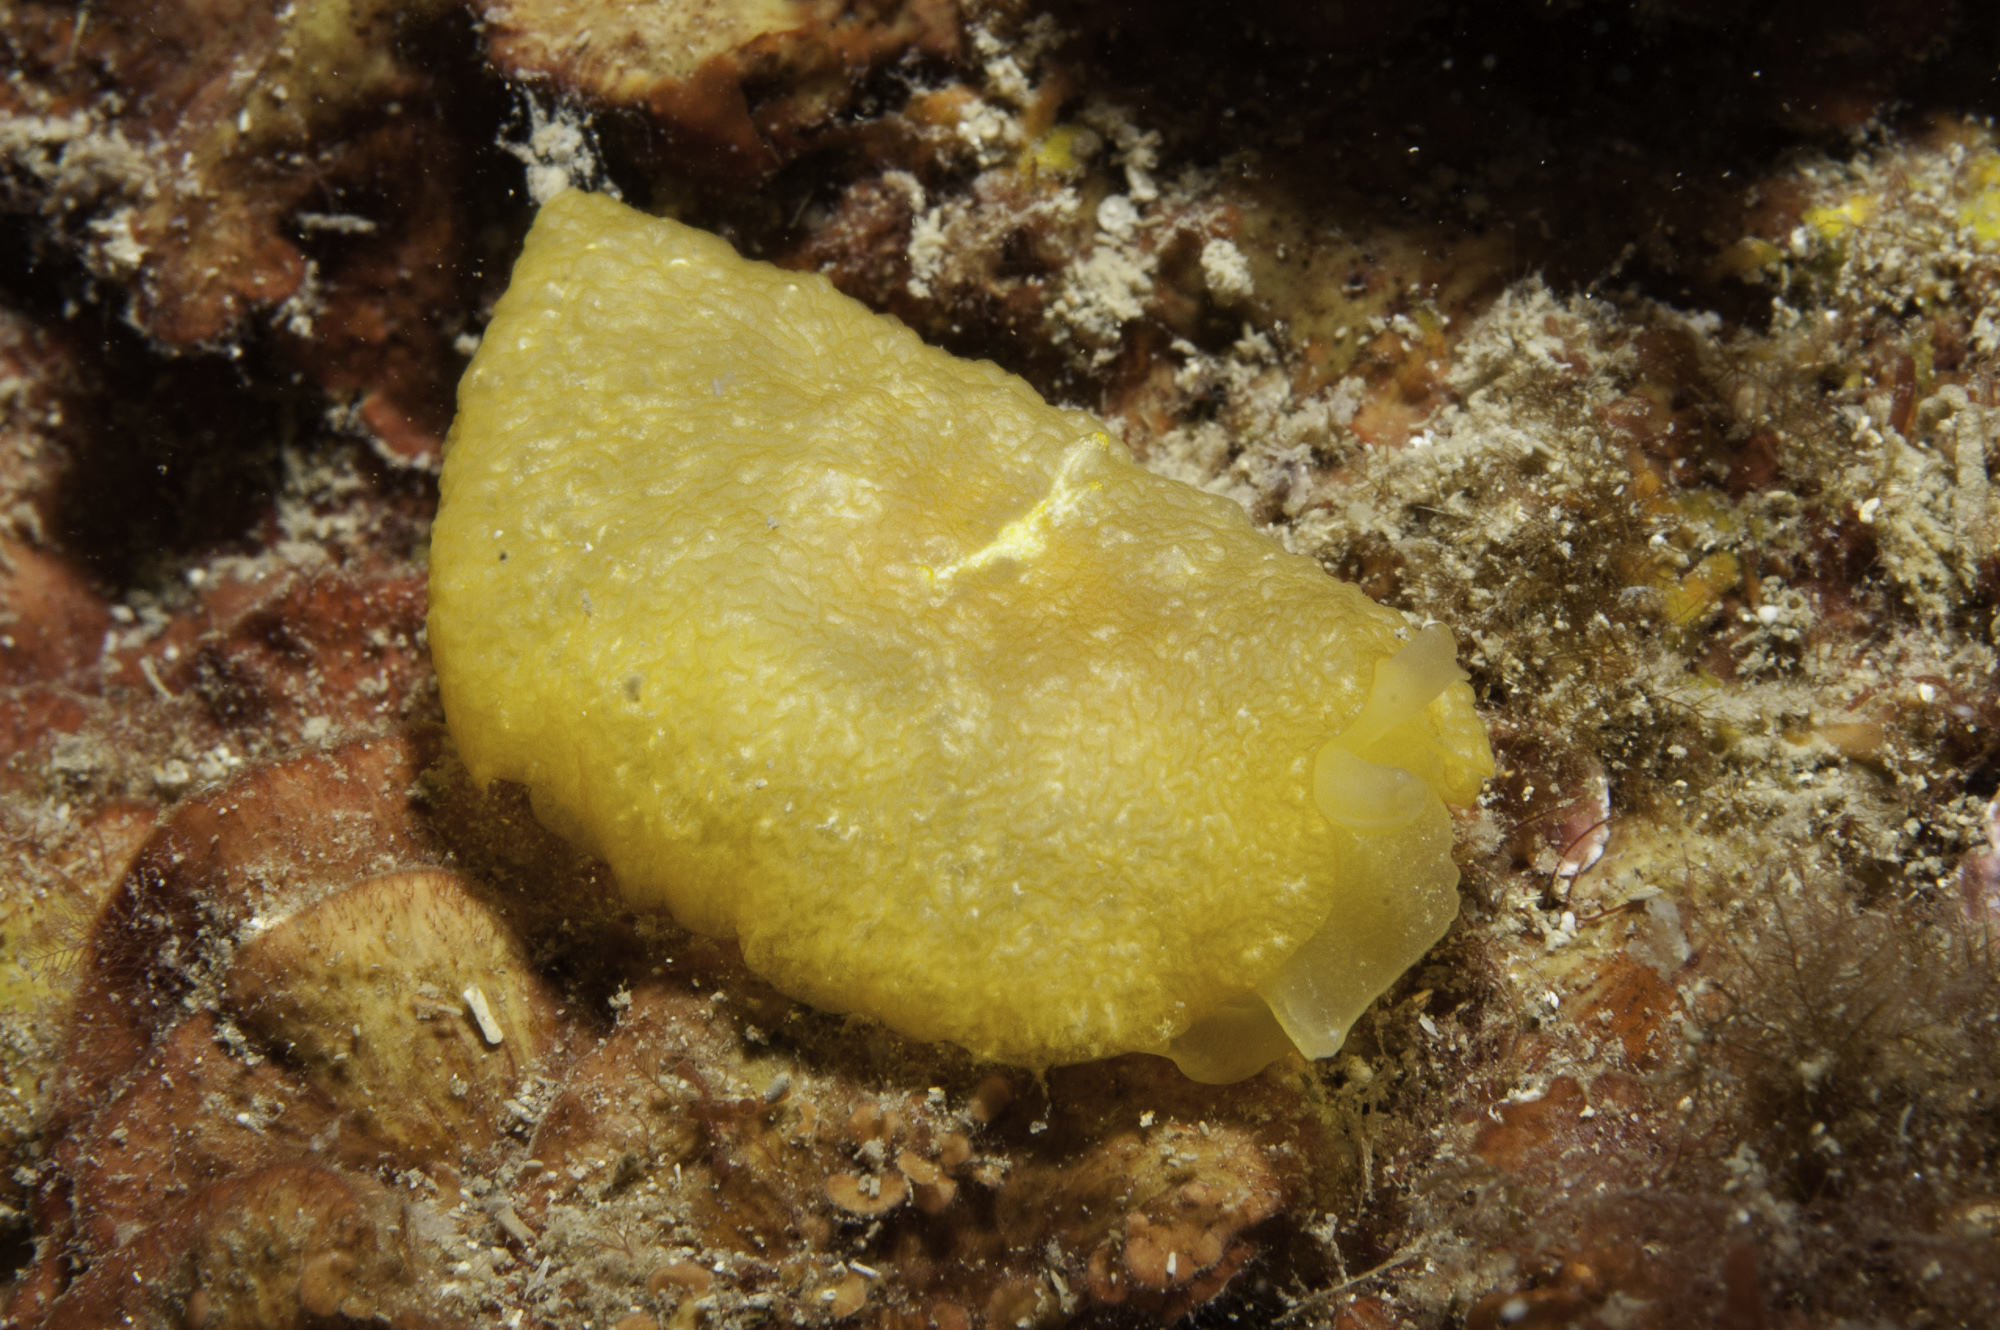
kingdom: Animalia
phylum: Mollusca
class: Gastropoda
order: Pleurobranchida
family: Pleurobranchidae
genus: Pleurehdera
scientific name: Pleurehdera
